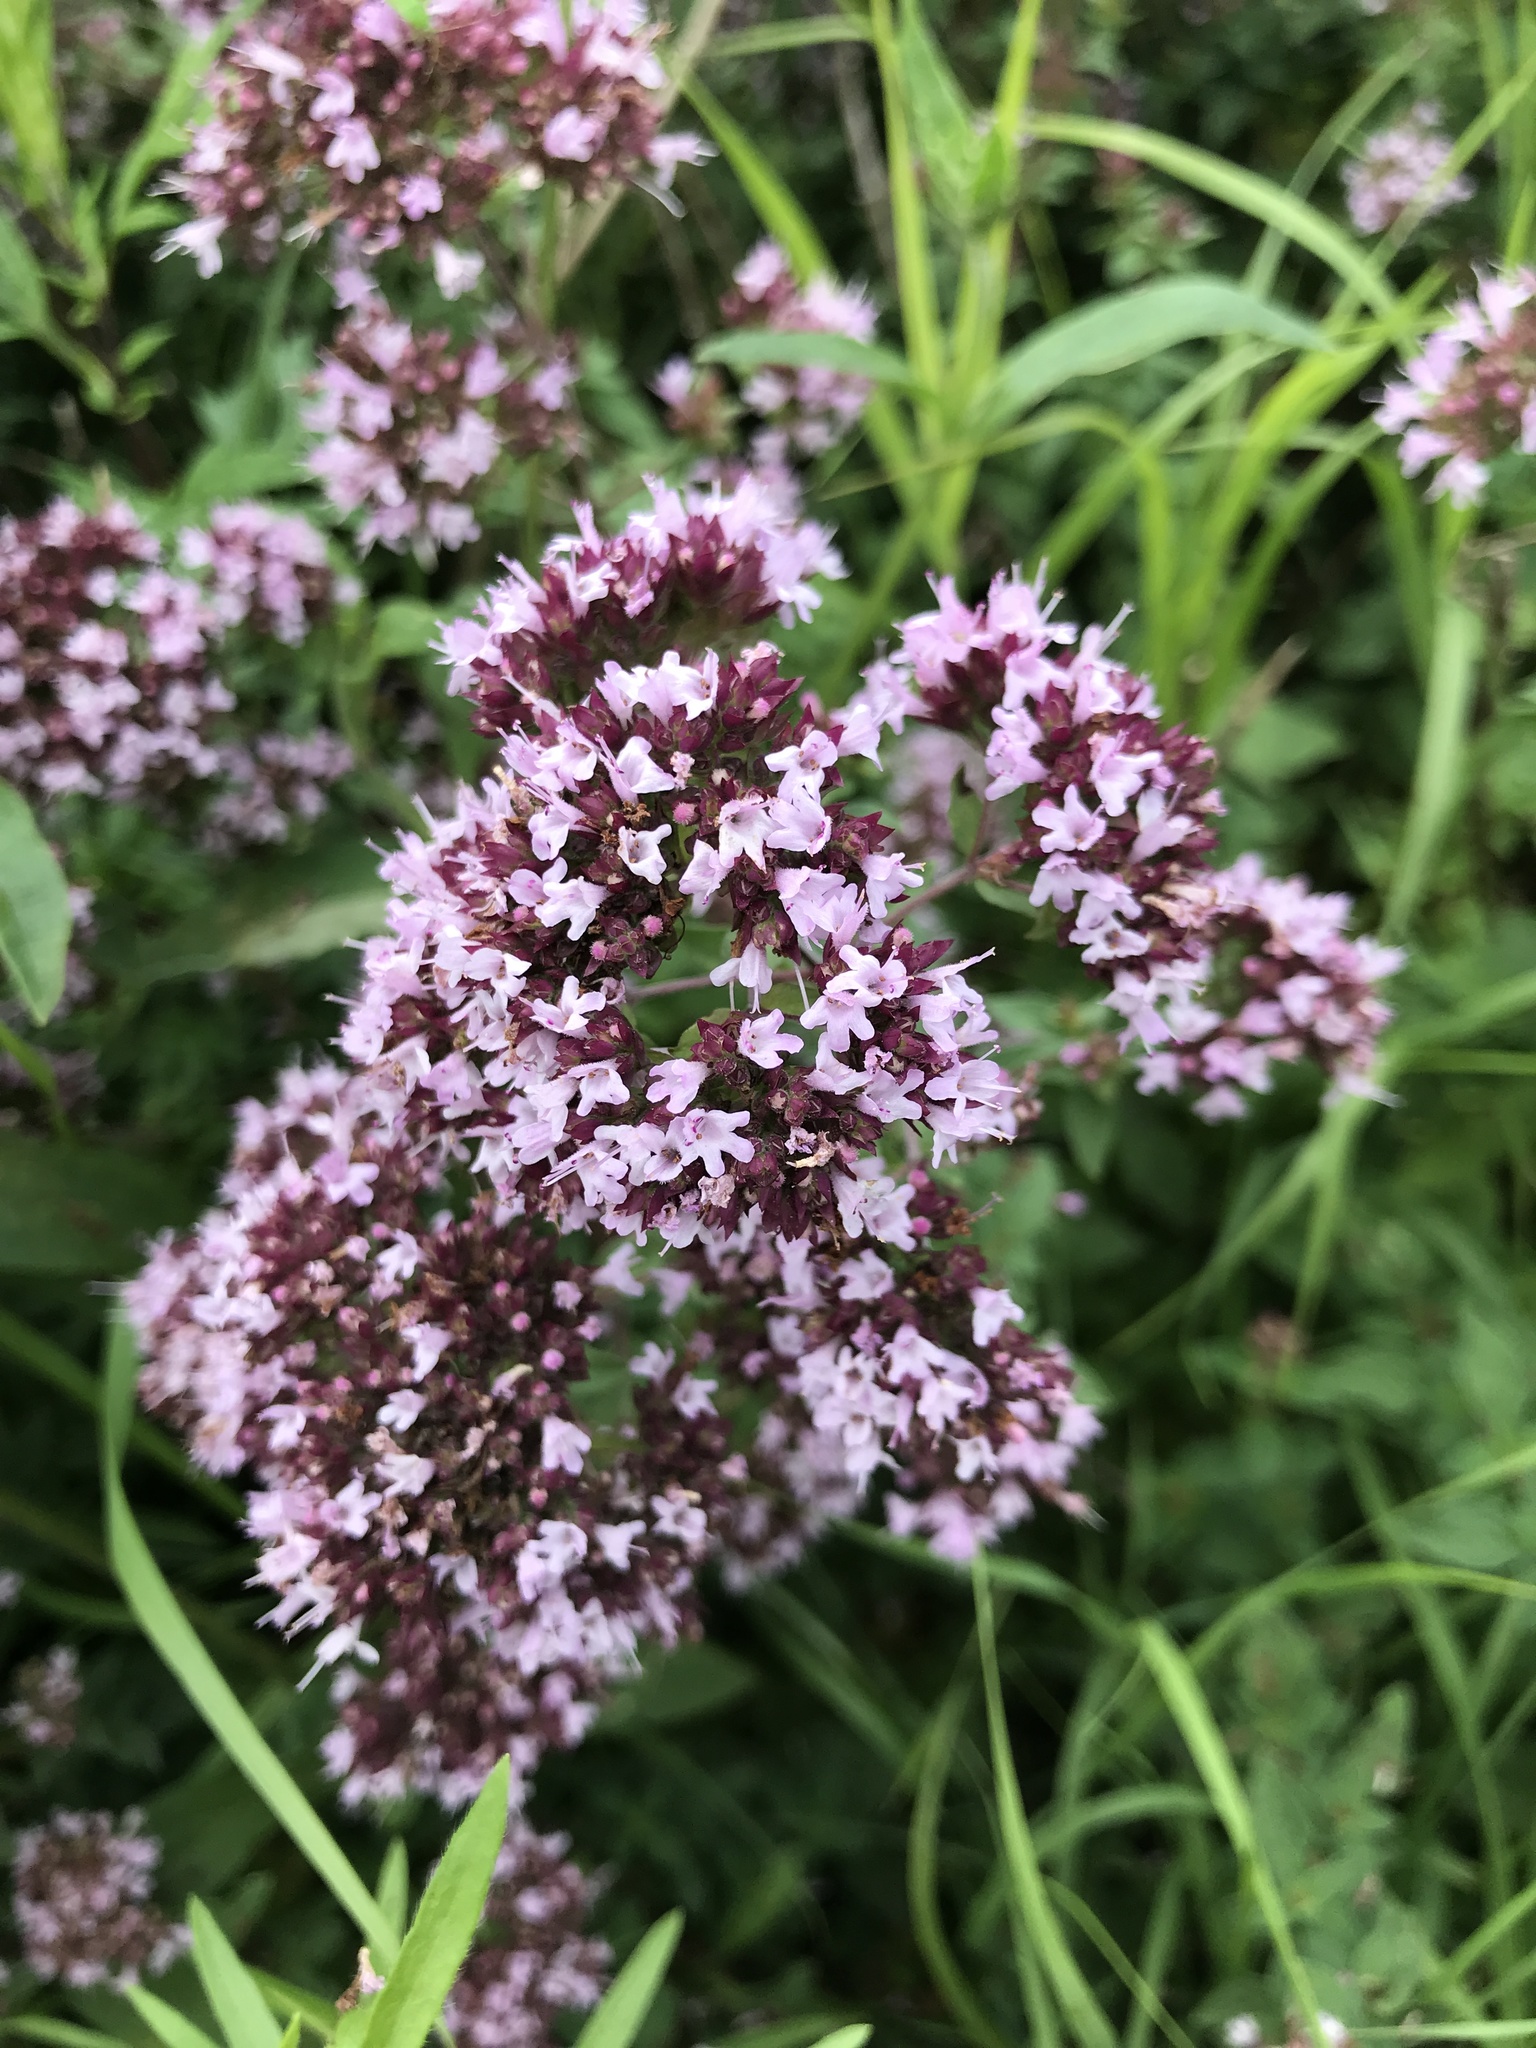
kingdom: Plantae
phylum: Tracheophyta
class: Magnoliopsida
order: Lamiales
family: Lamiaceae
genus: Origanum
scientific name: Origanum vulgare
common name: Wild marjoram
